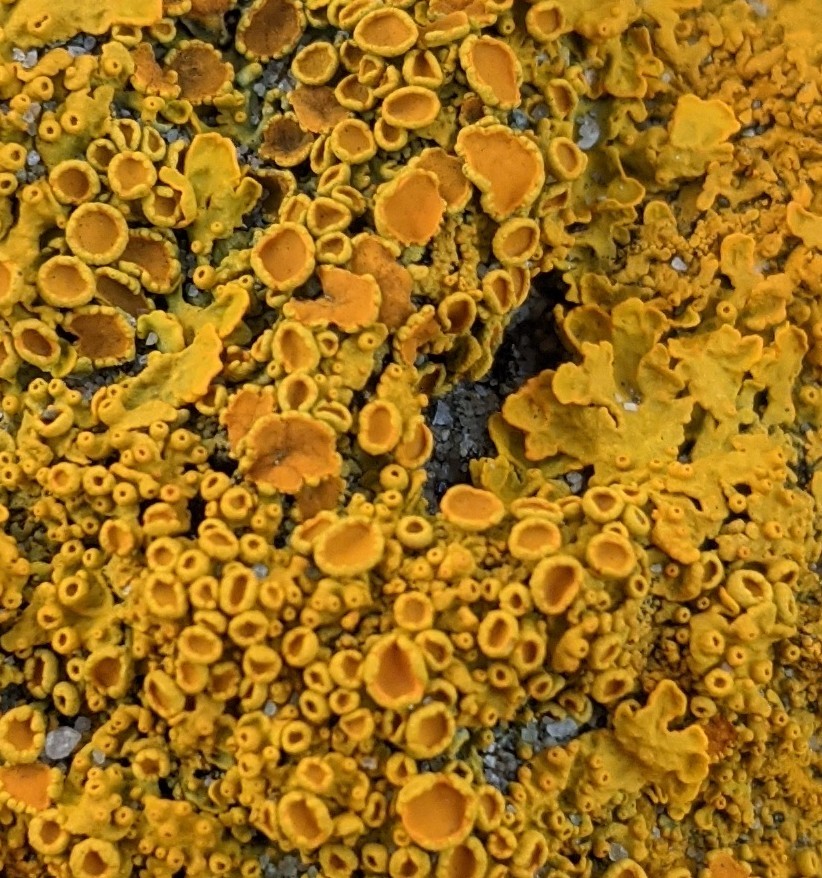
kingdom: Fungi
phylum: Ascomycota
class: Lecanoromycetes
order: Teloschistales
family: Teloschistaceae
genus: Xanthoria
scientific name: Xanthoria parietina
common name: Common orange lichen
